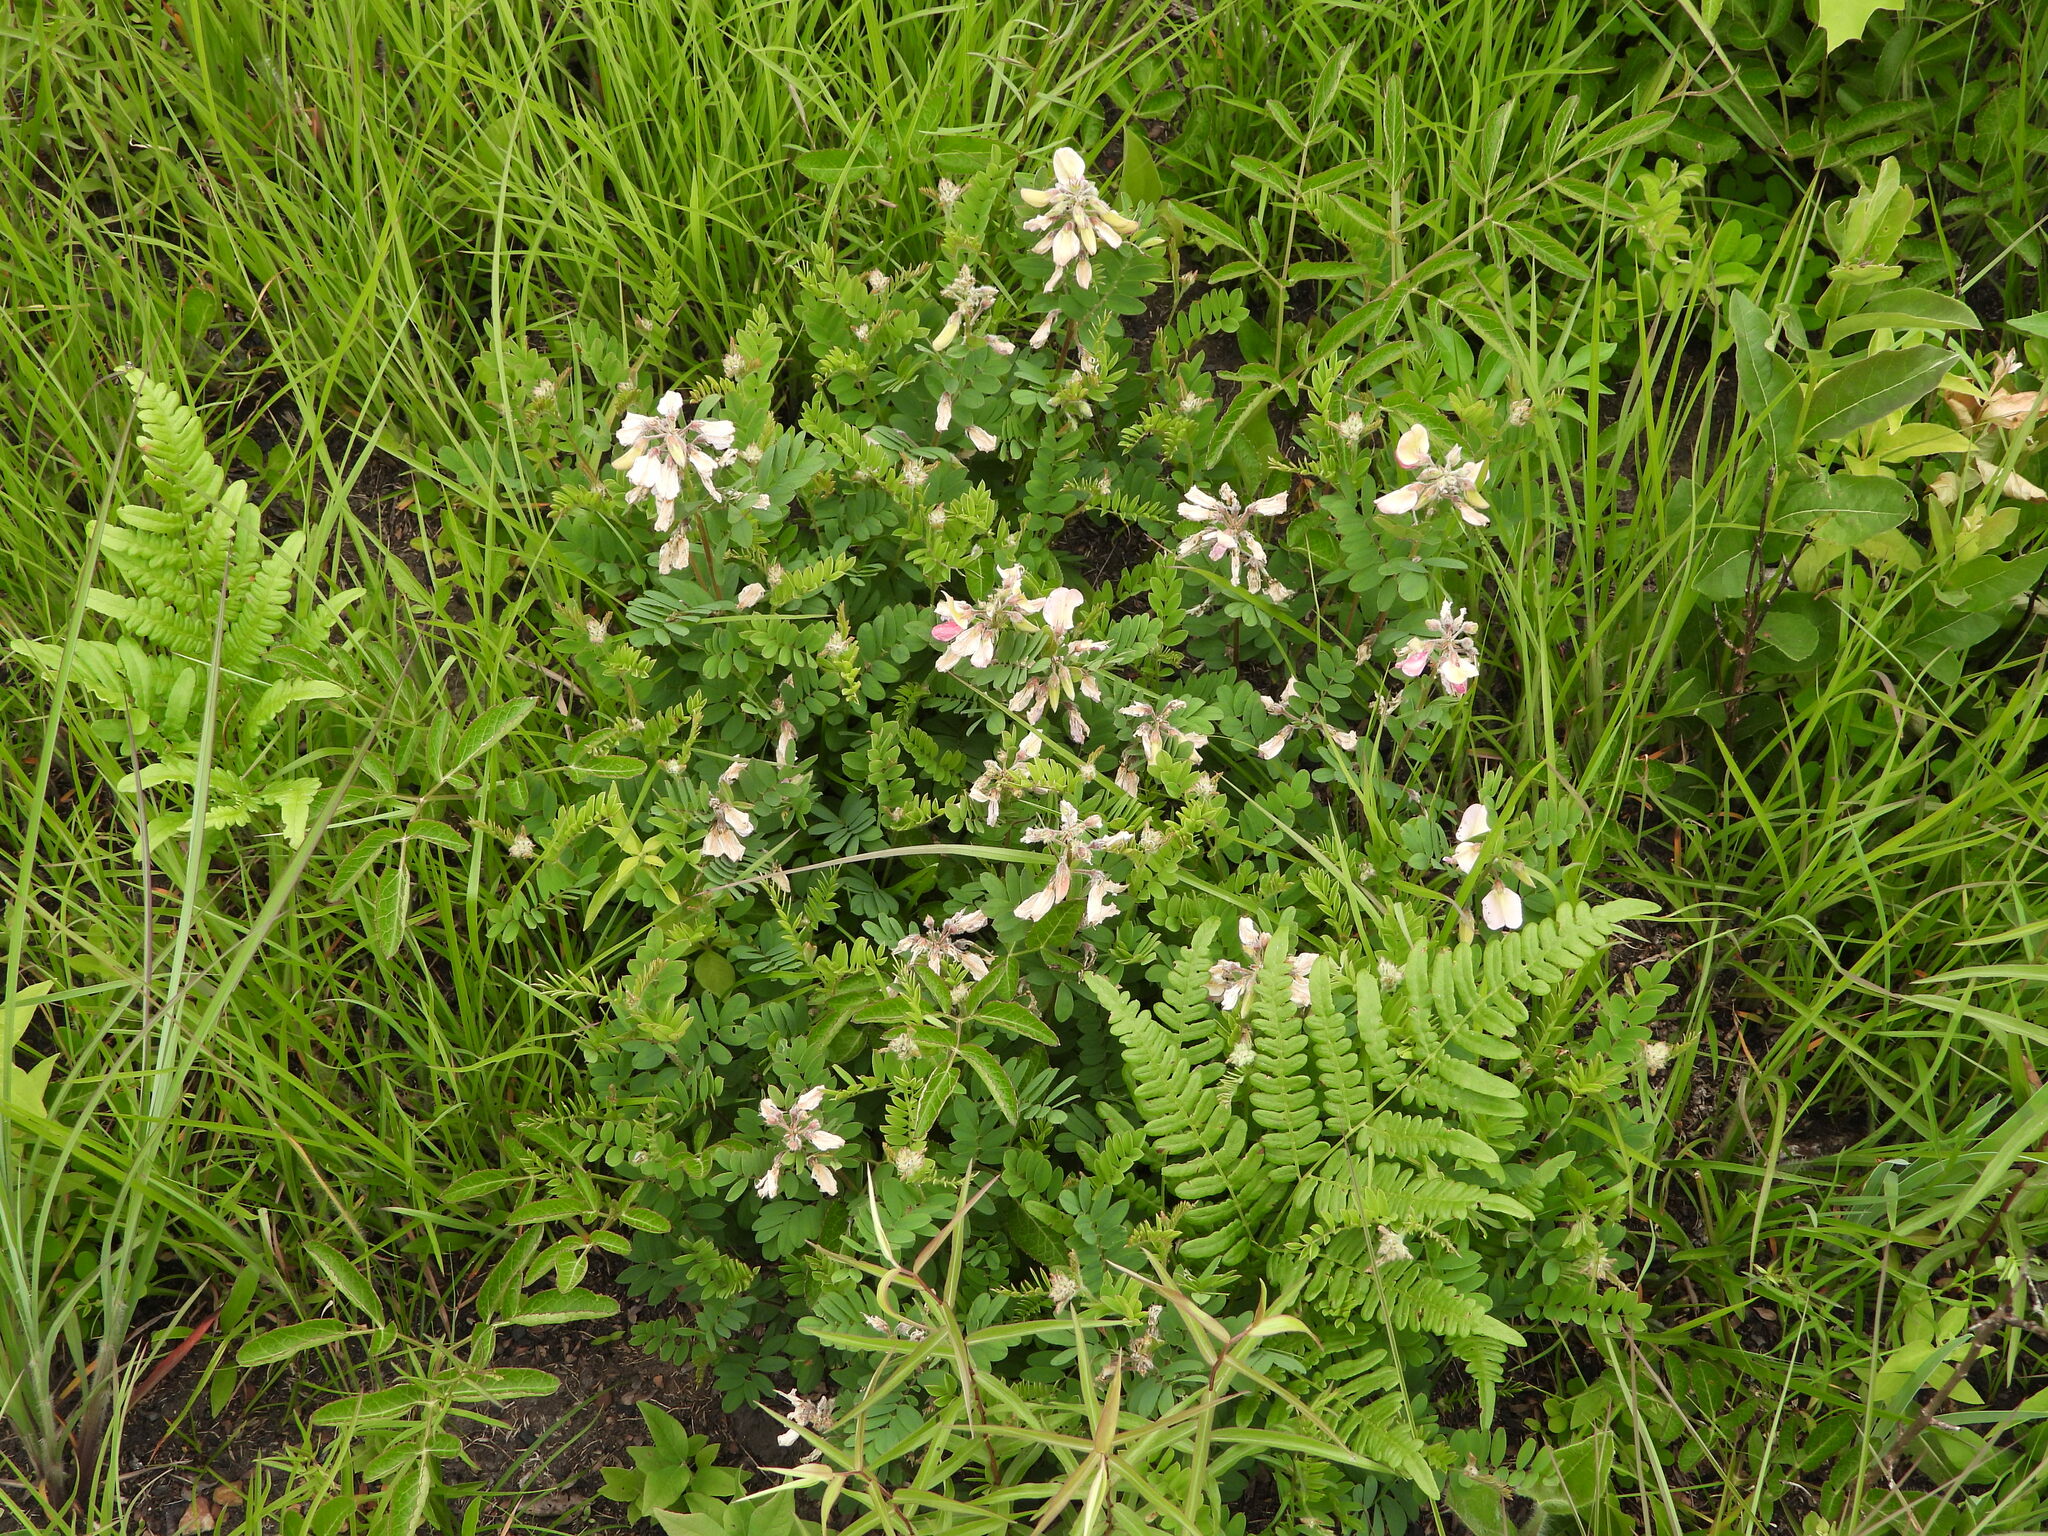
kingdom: Plantae
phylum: Tracheophyta
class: Magnoliopsida
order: Fabales
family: Fabaceae
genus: Tephrosia
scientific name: Tephrosia virginiana
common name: Rabbit-pea
